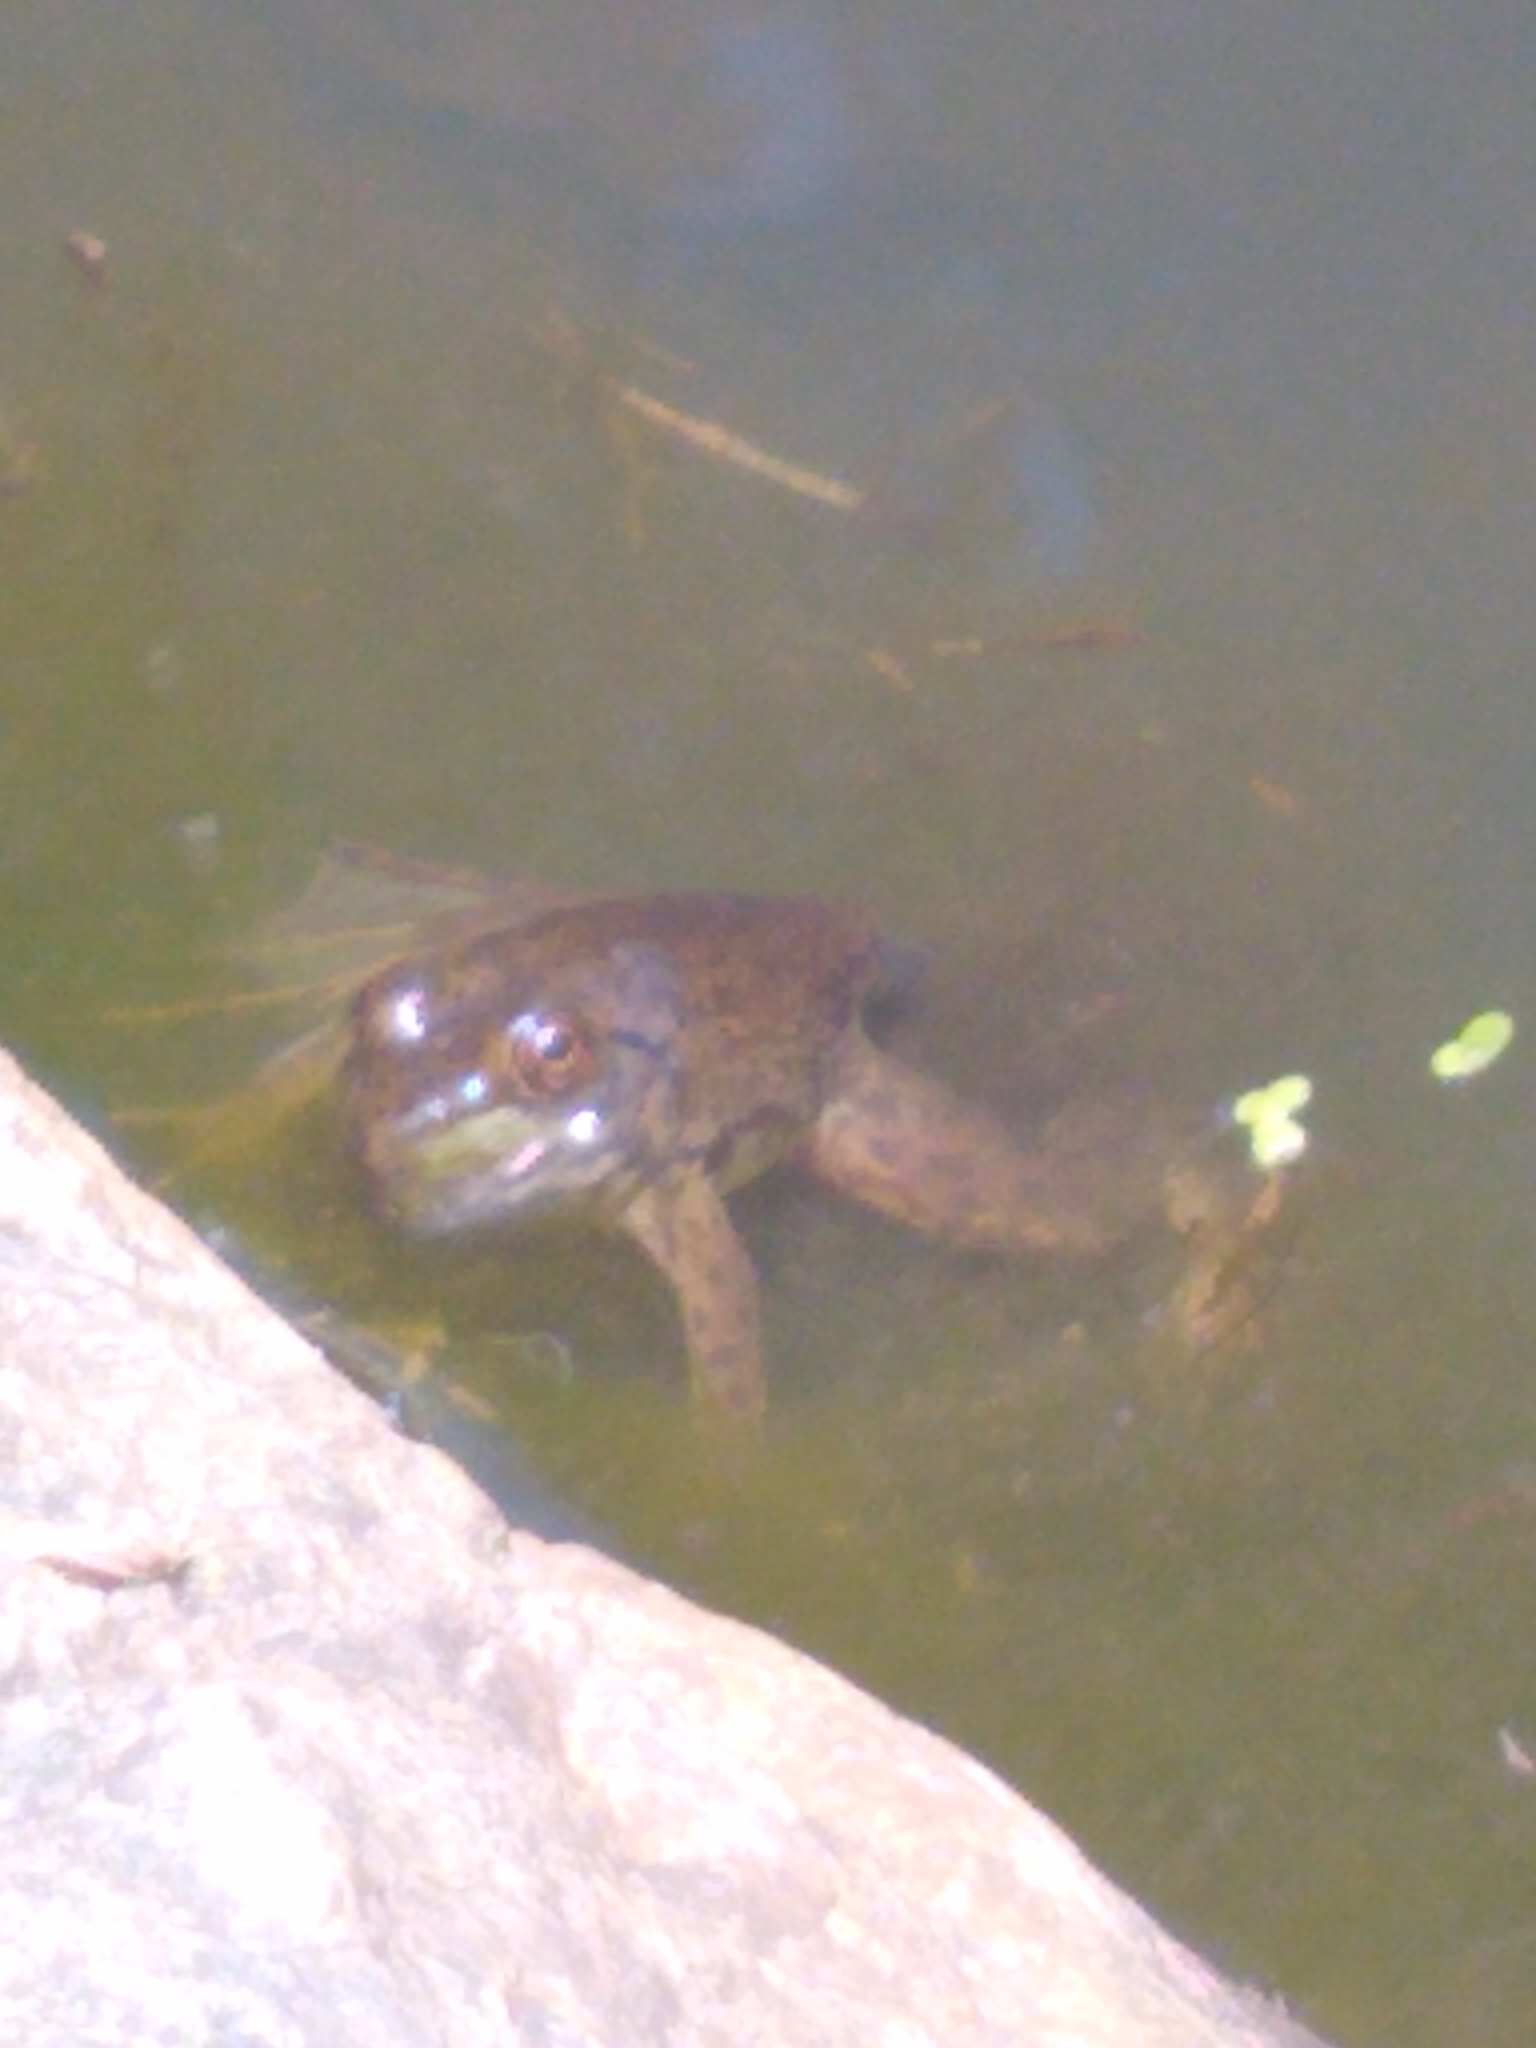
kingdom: Animalia
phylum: Chordata
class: Amphibia
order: Anura
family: Ranidae
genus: Lithobates
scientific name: Lithobates catesbeianus
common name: American bullfrog
